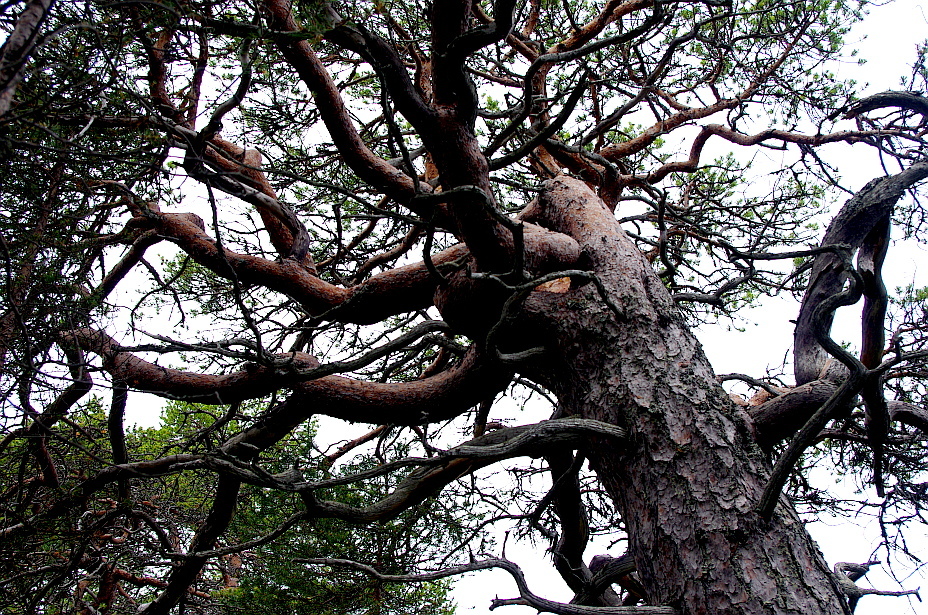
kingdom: Plantae
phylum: Tracheophyta
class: Pinopsida
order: Pinales
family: Pinaceae
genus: Pinus
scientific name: Pinus sylvestris
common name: Scots pine
